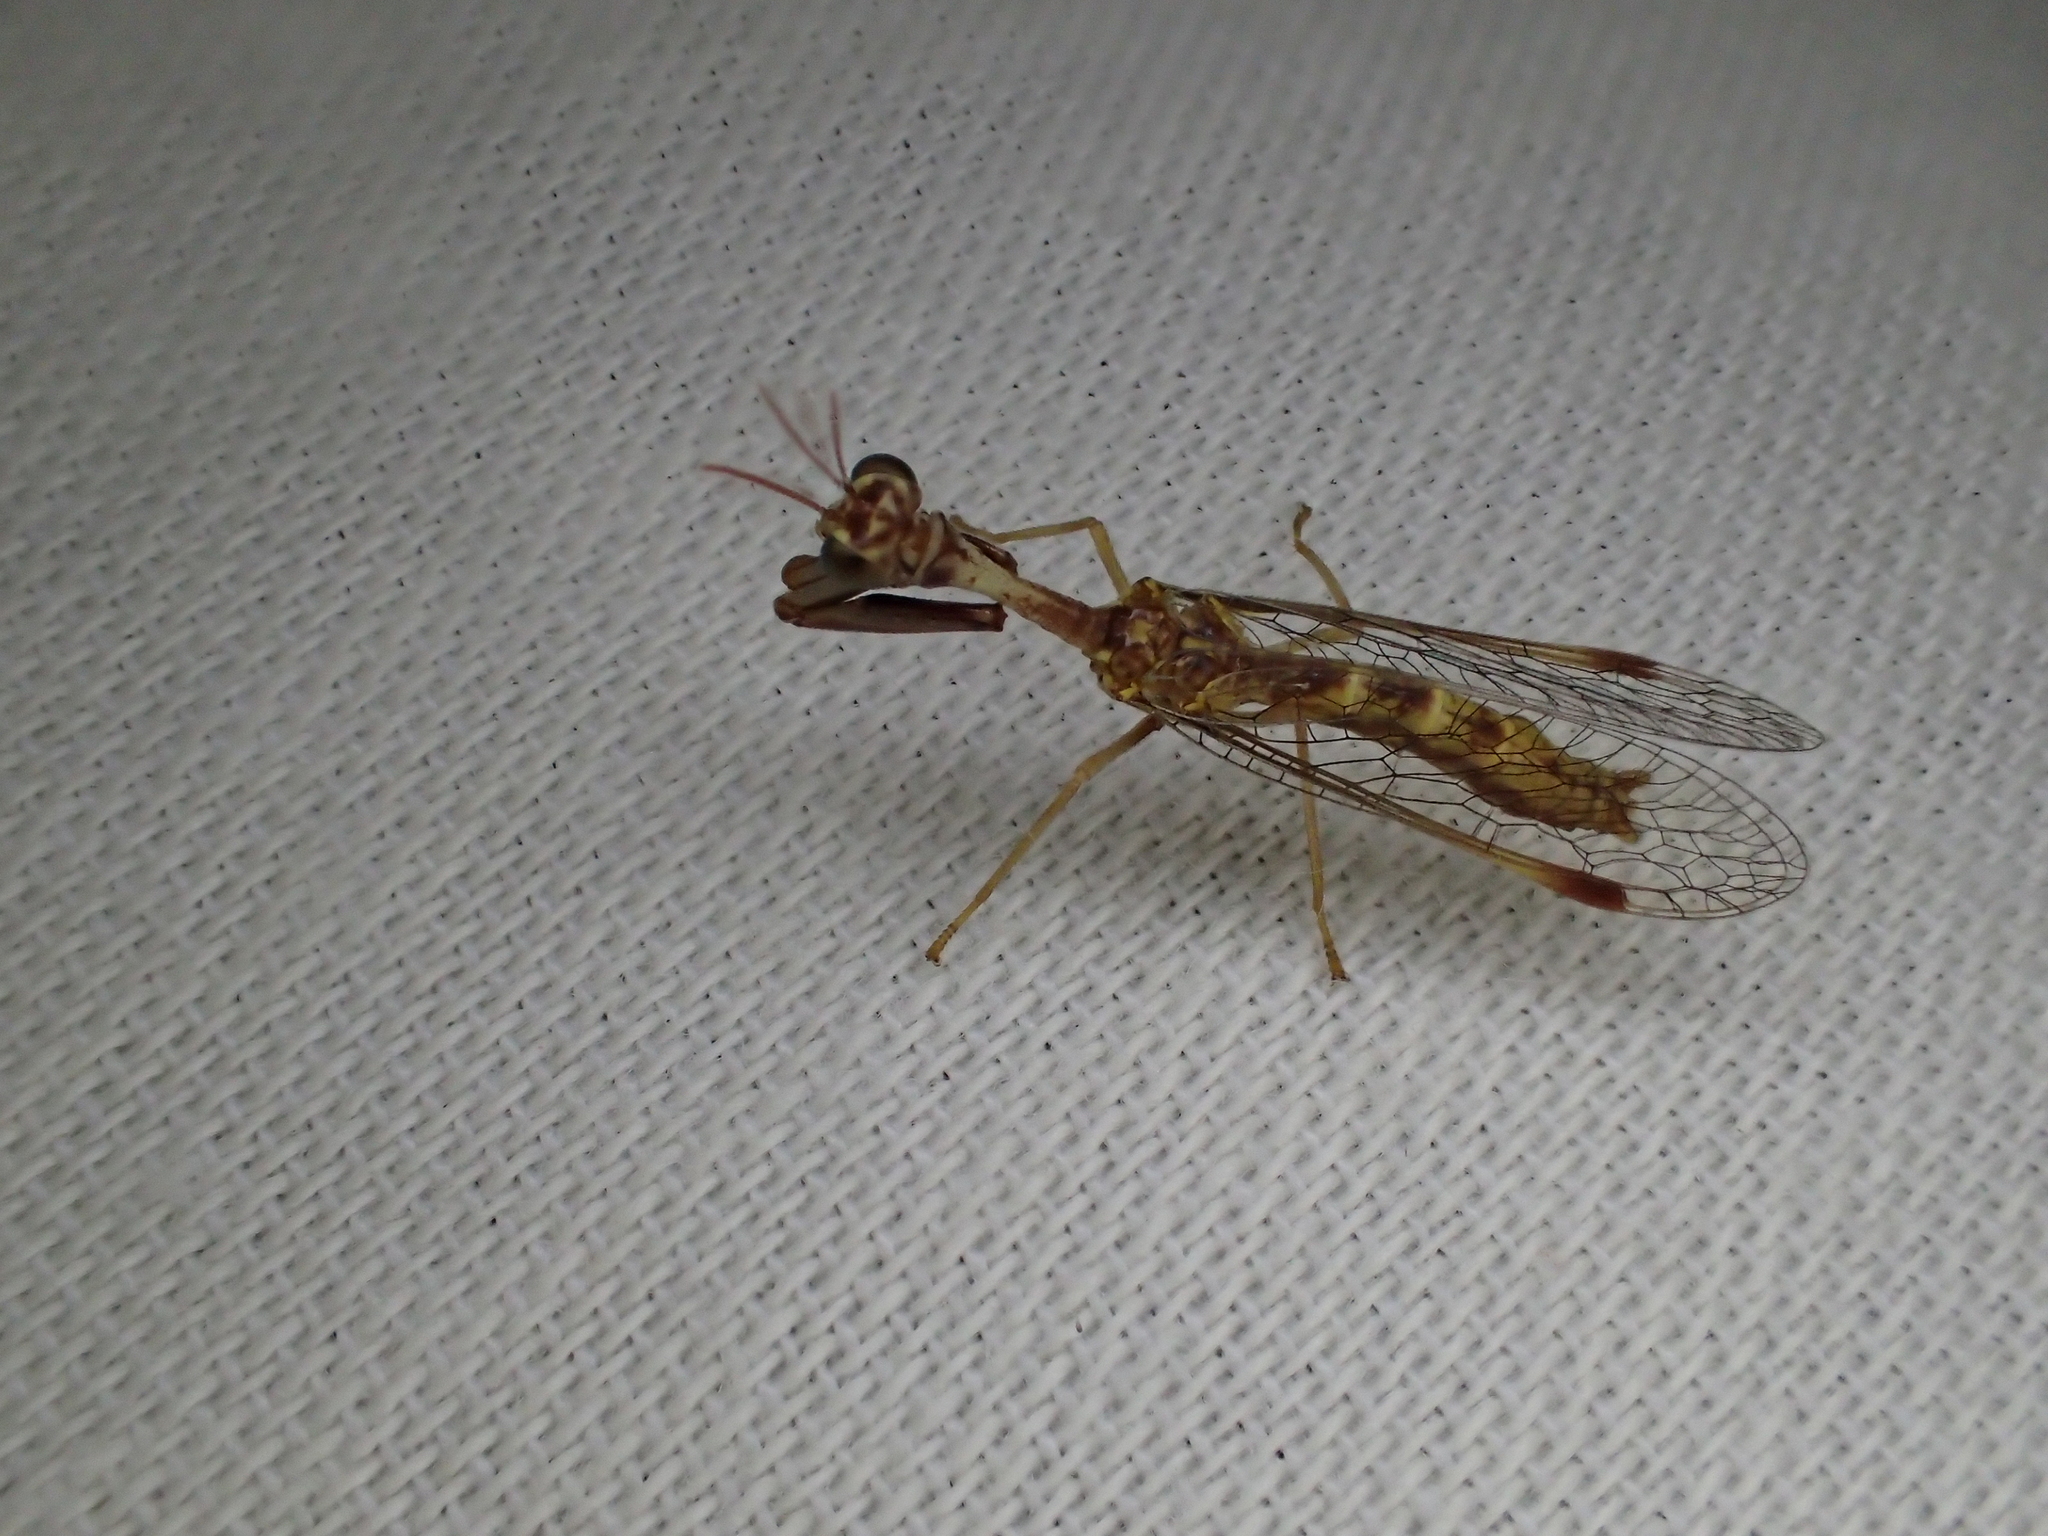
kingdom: Animalia
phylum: Arthropoda
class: Insecta
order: Neuroptera
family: Mantispidae
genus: Mantispa
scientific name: Mantispa styriaca
